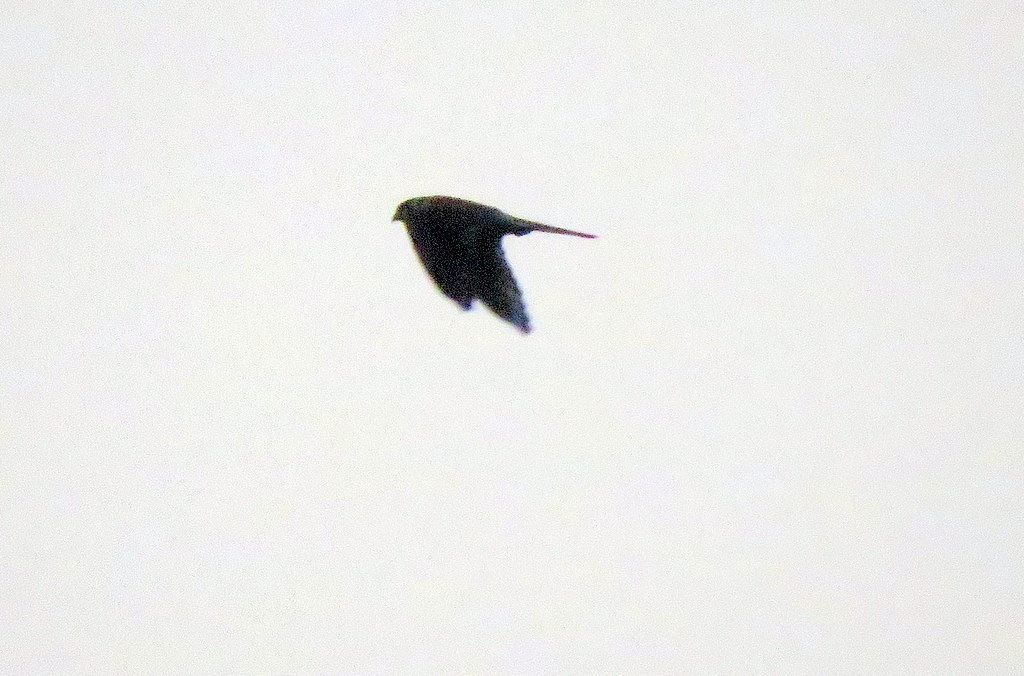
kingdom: Animalia
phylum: Chordata
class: Aves
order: Falconiformes
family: Falconidae
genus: Falco
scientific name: Falco sparverius
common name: American kestrel
